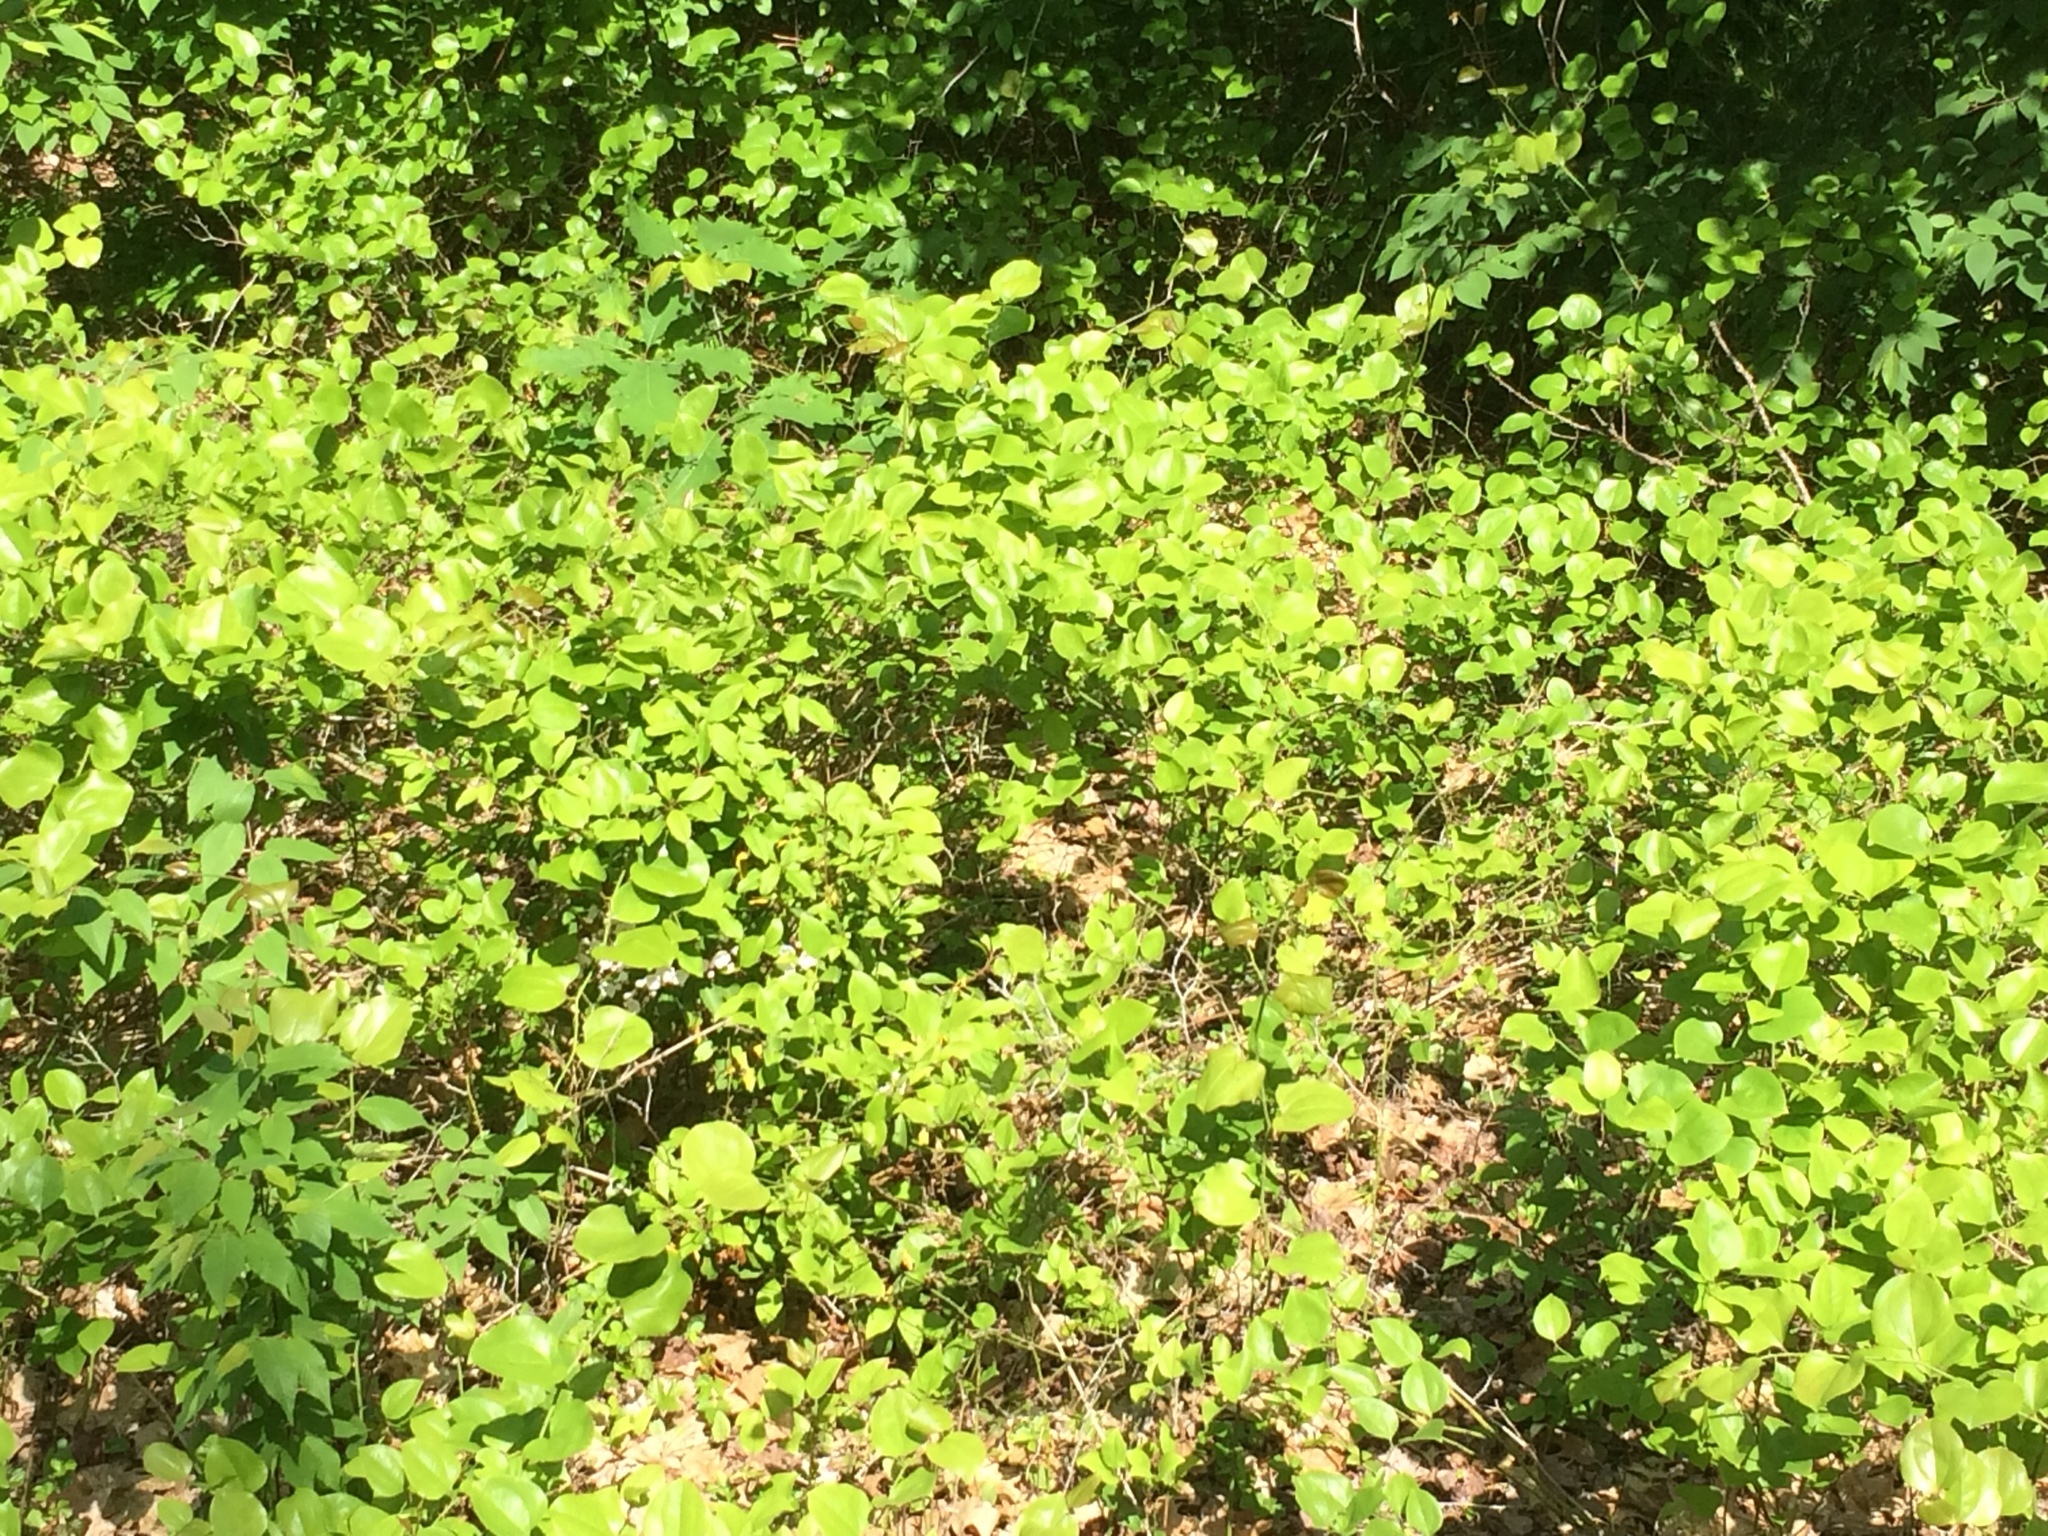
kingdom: Plantae
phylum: Tracheophyta
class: Liliopsida
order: Liliales
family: Smilacaceae
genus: Smilax
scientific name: Smilax rotundifolia
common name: Bullbriar
